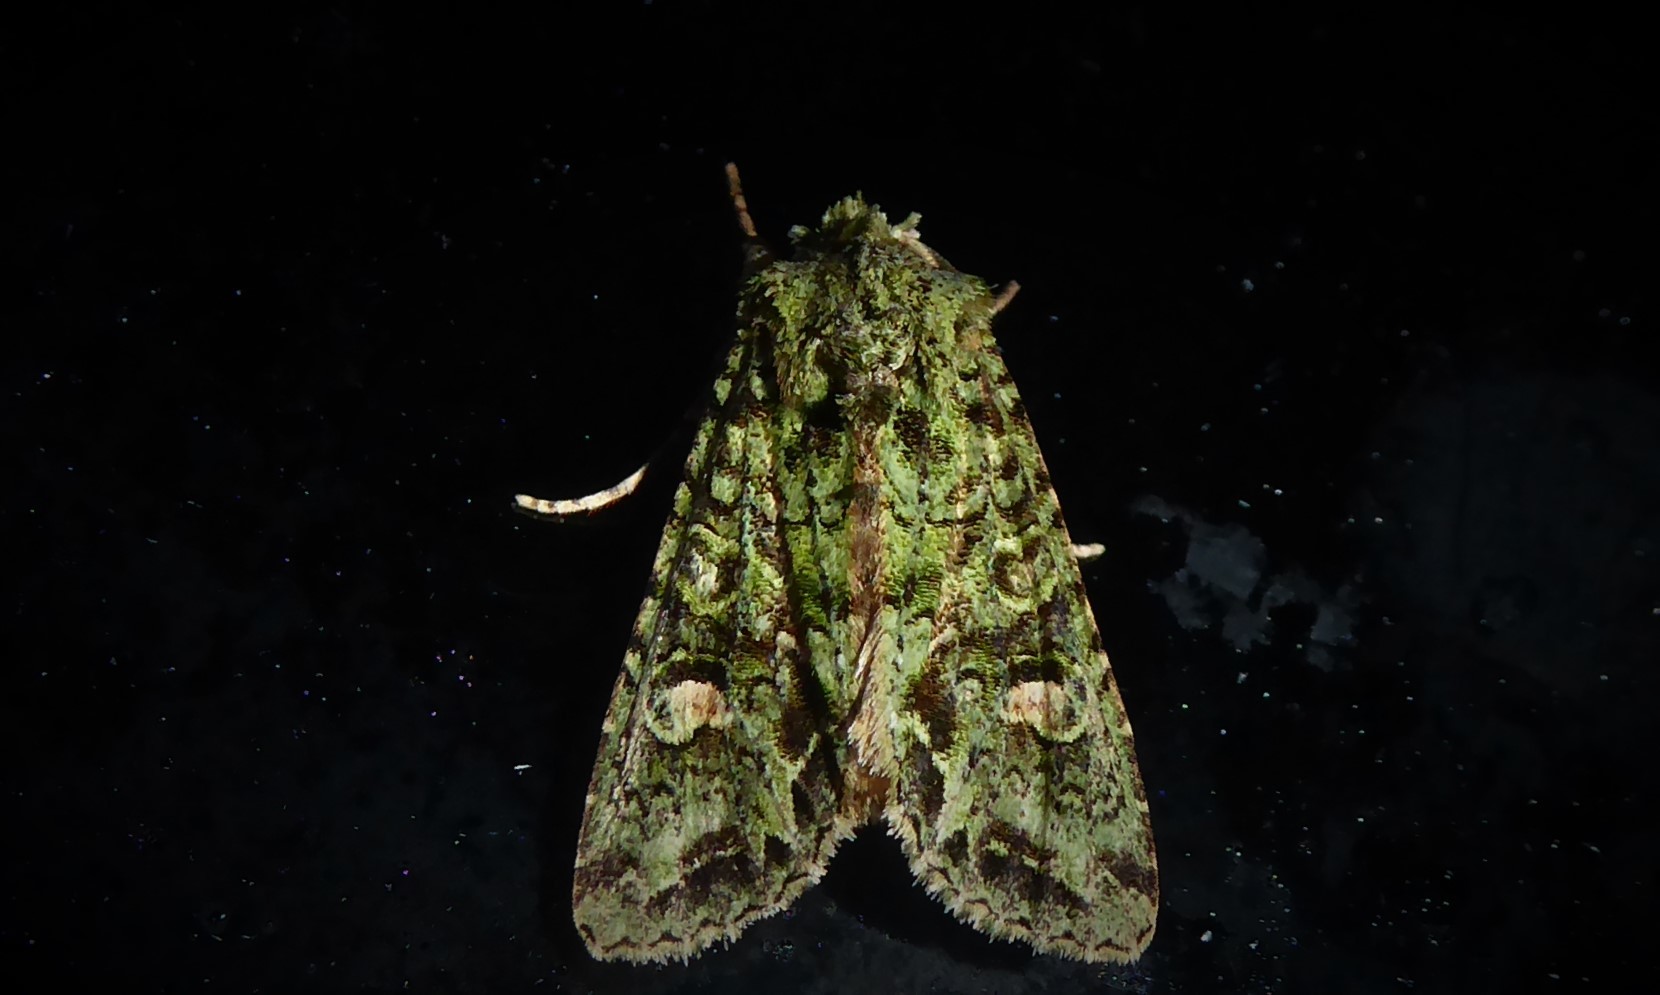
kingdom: Animalia
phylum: Arthropoda
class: Insecta
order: Lepidoptera
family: Noctuidae
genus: Ichneutica
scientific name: Ichneutica
